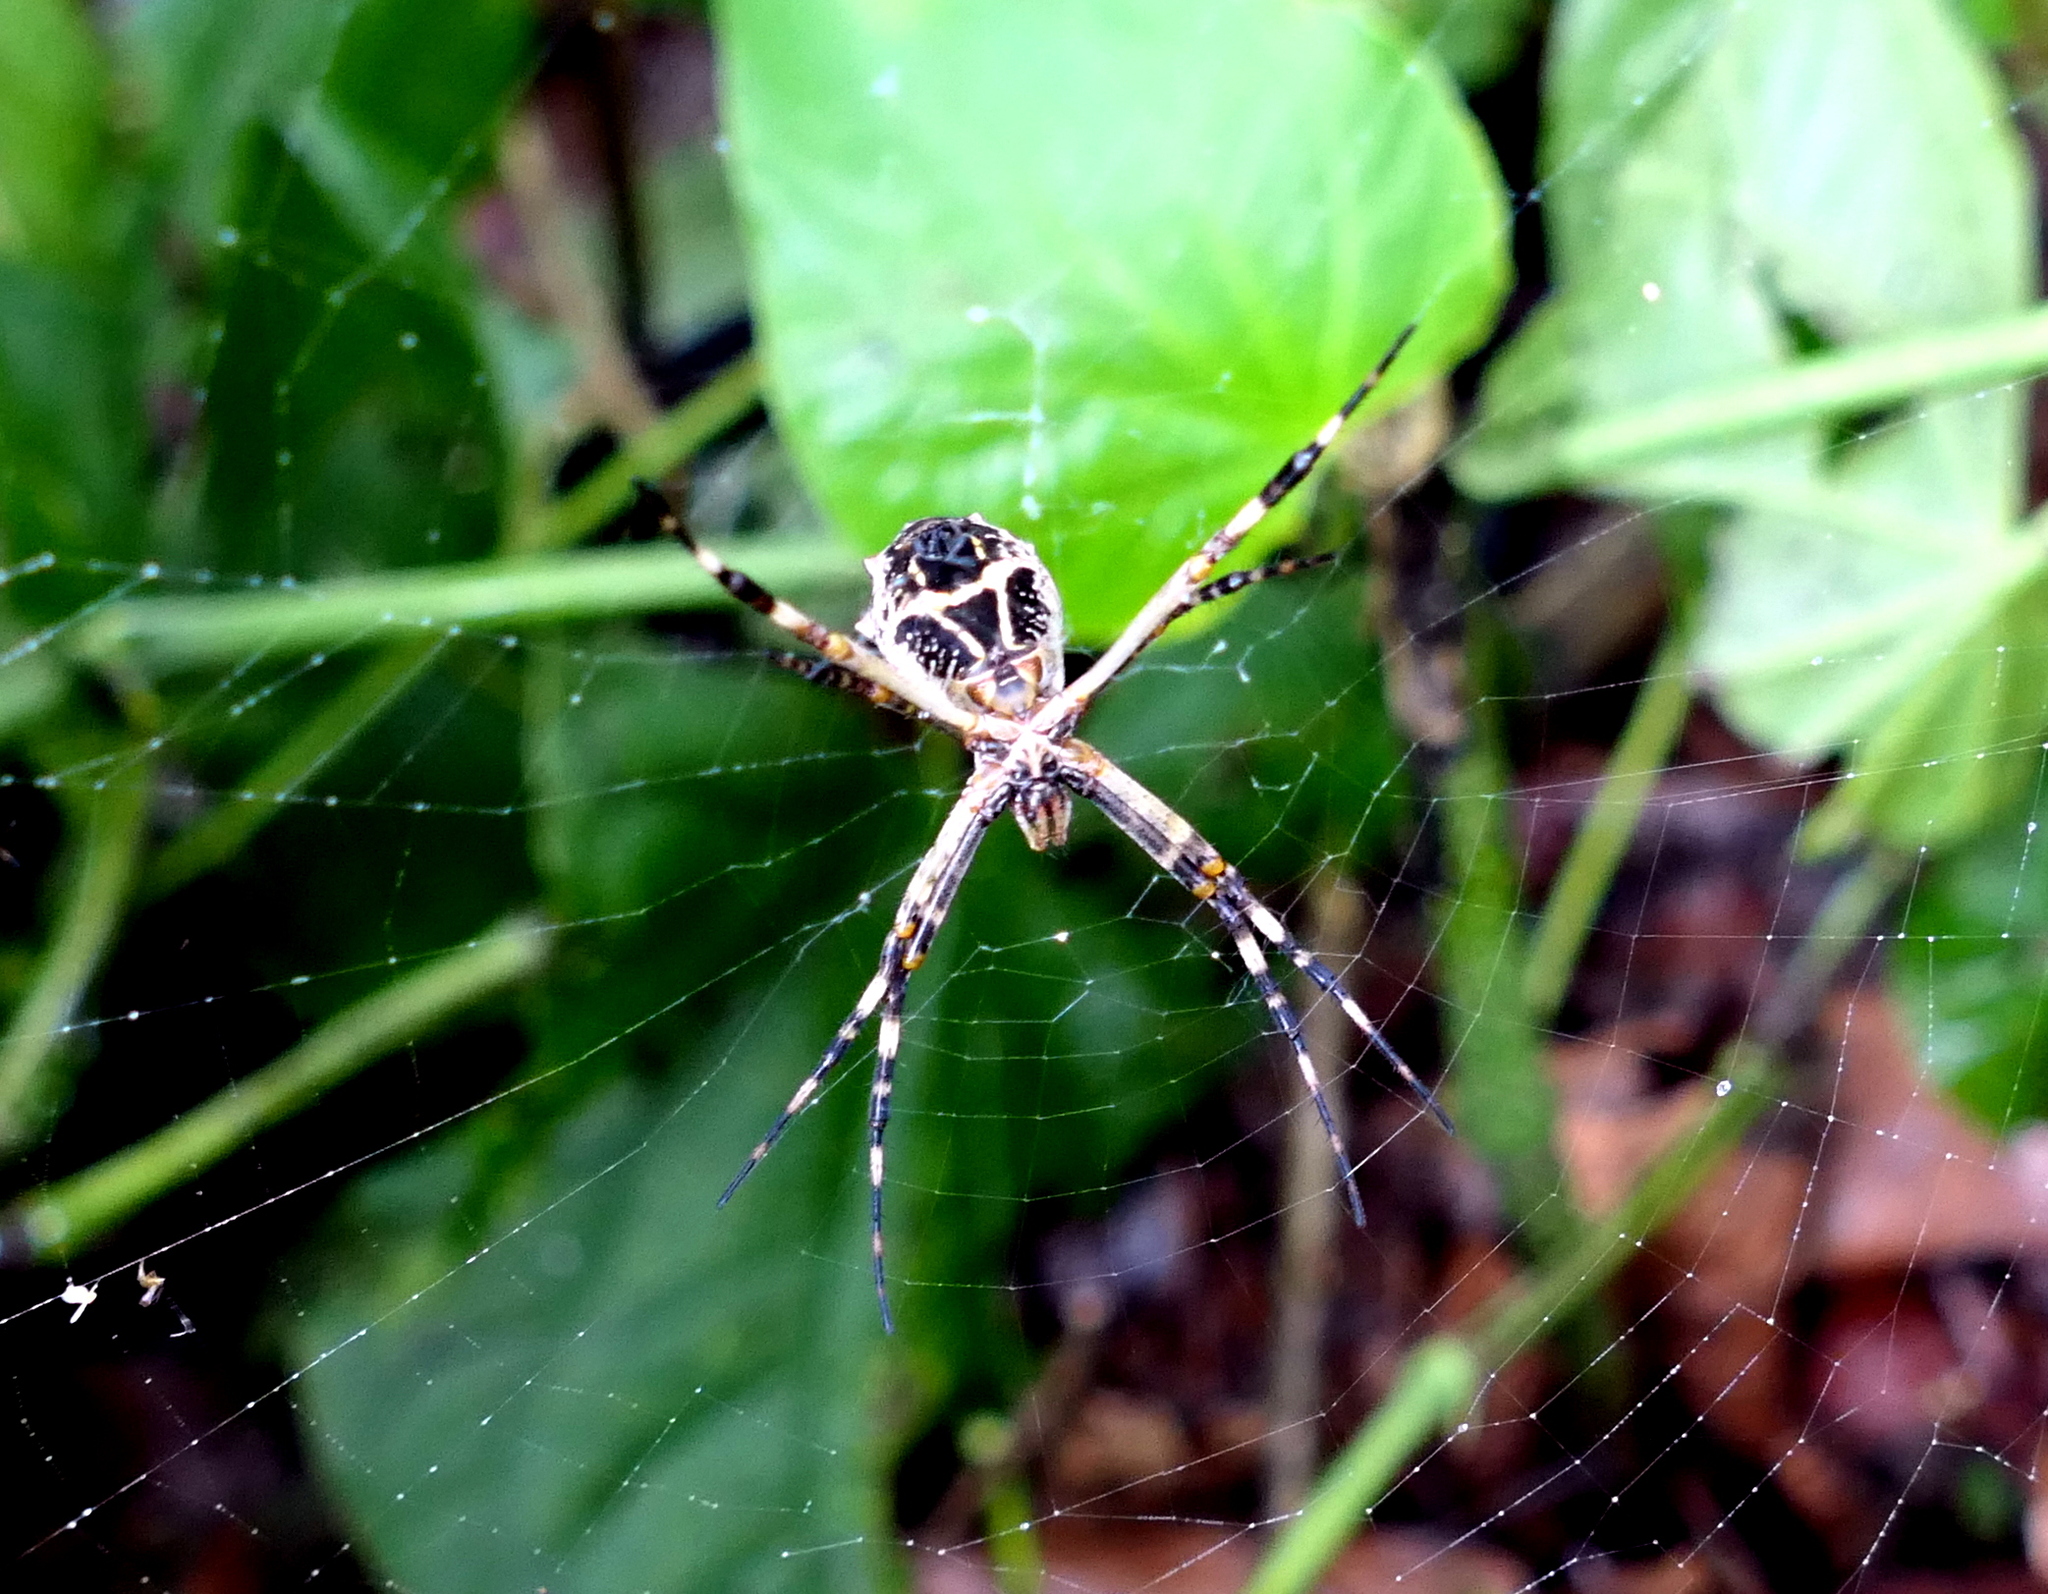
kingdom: Animalia
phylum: Arthropoda
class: Arachnida
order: Araneae
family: Araneidae
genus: Argiope
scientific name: Argiope argentata
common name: Orb weavers
